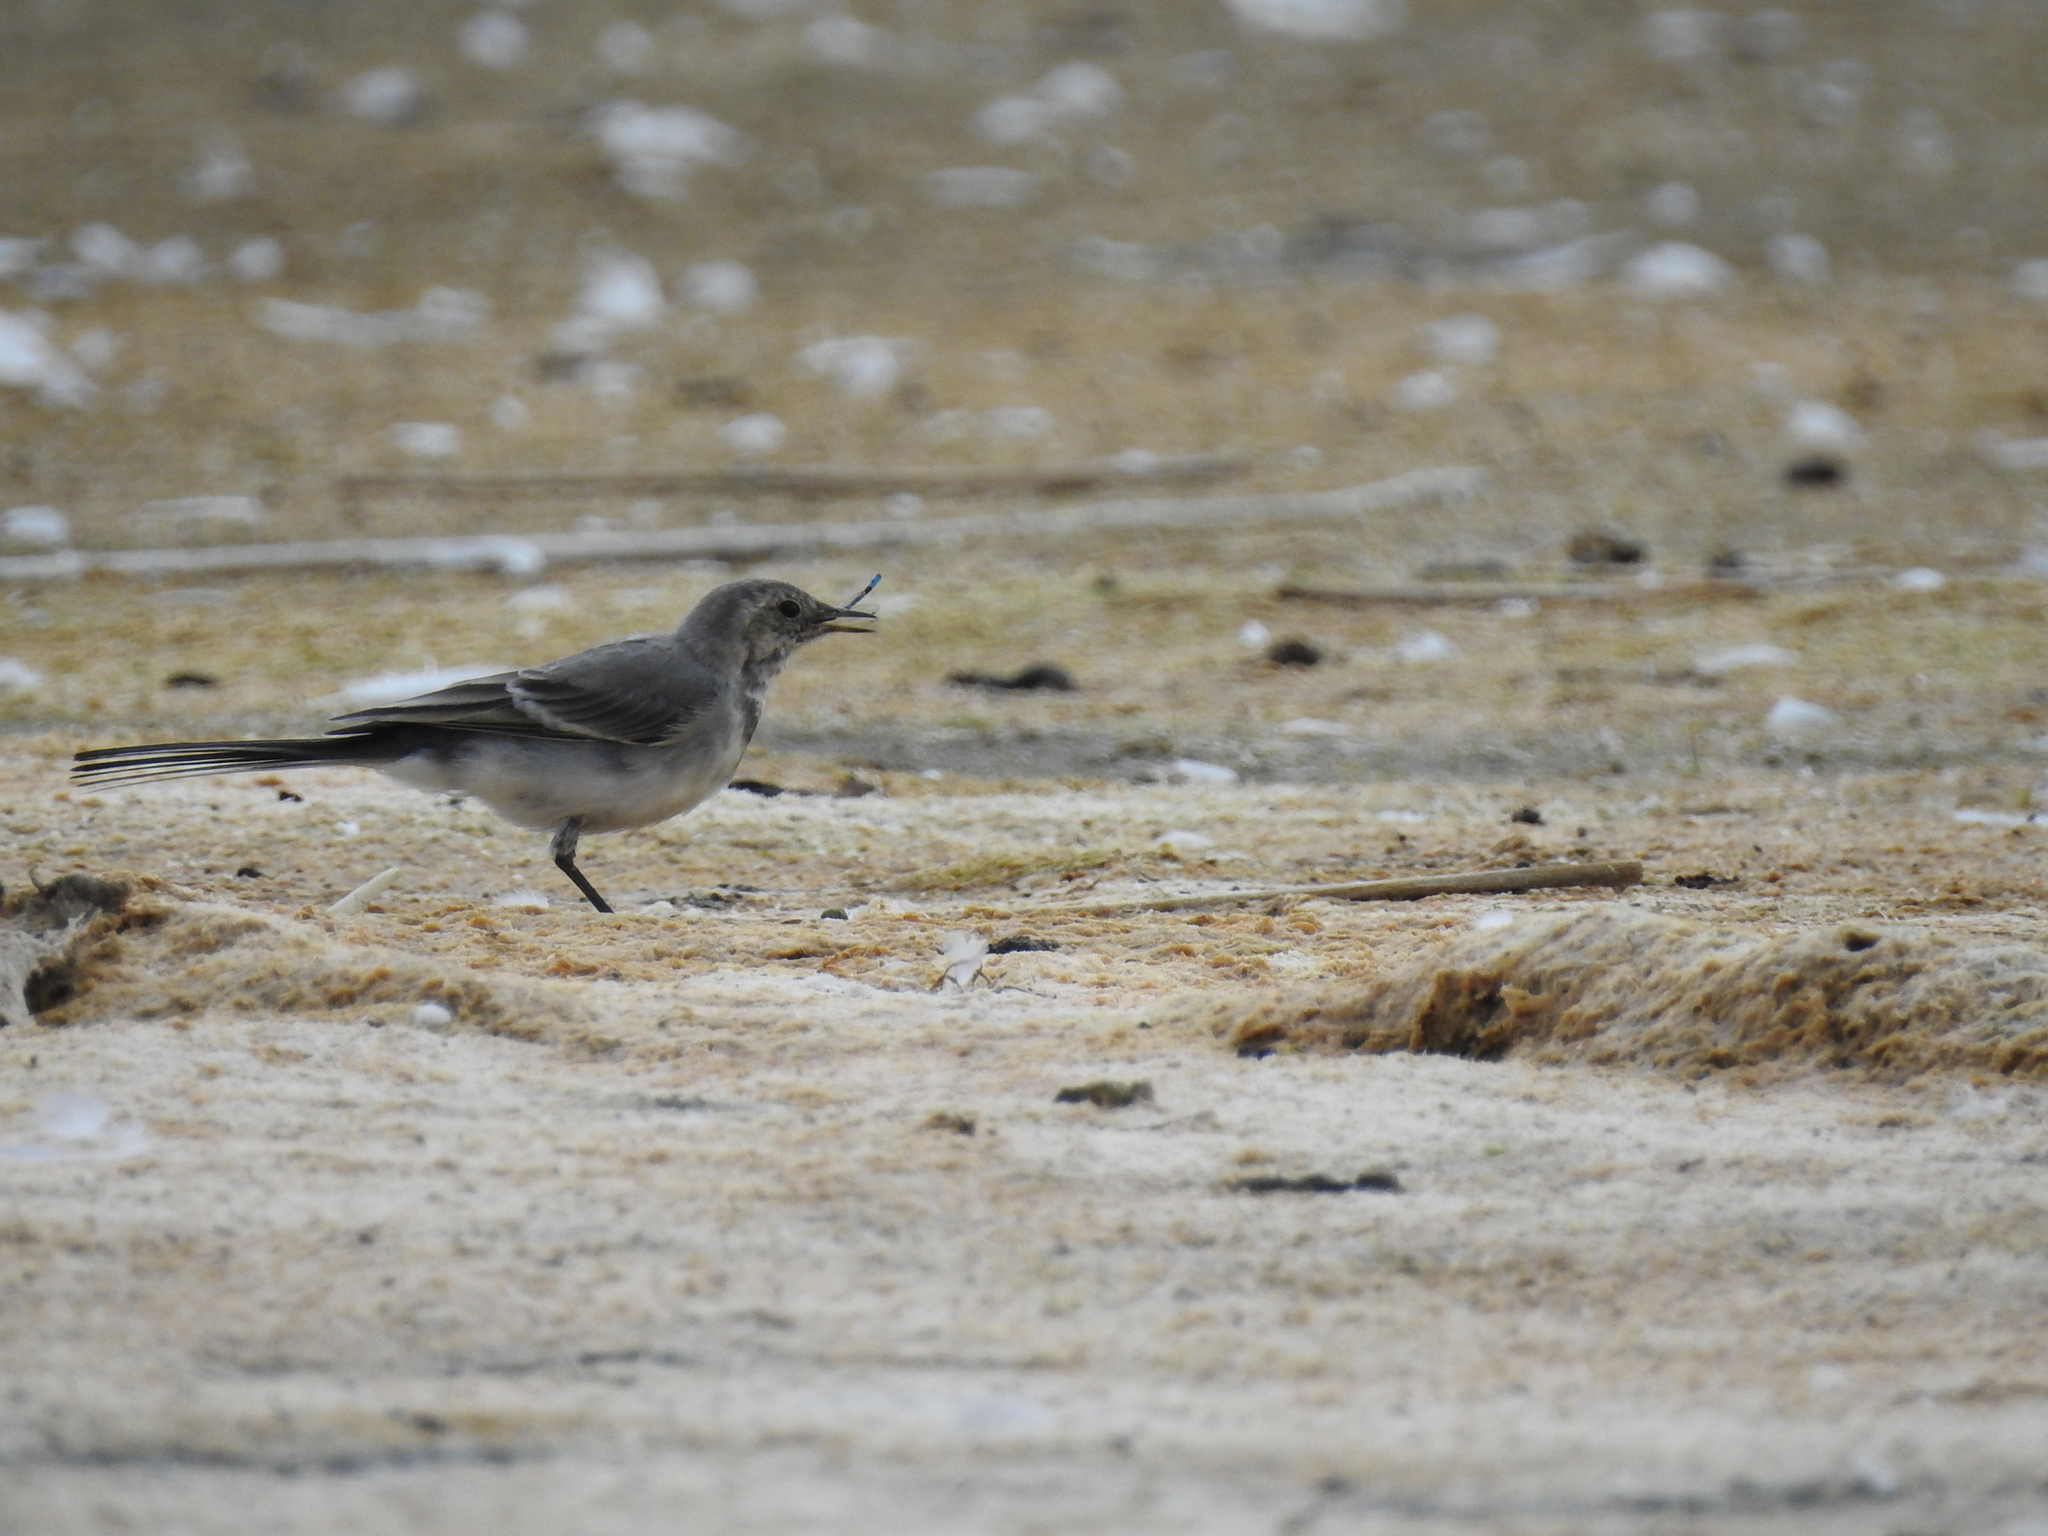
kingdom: Animalia
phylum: Chordata
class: Aves
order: Passeriformes
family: Motacillidae
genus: Motacilla
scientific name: Motacilla alba
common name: White wagtail
